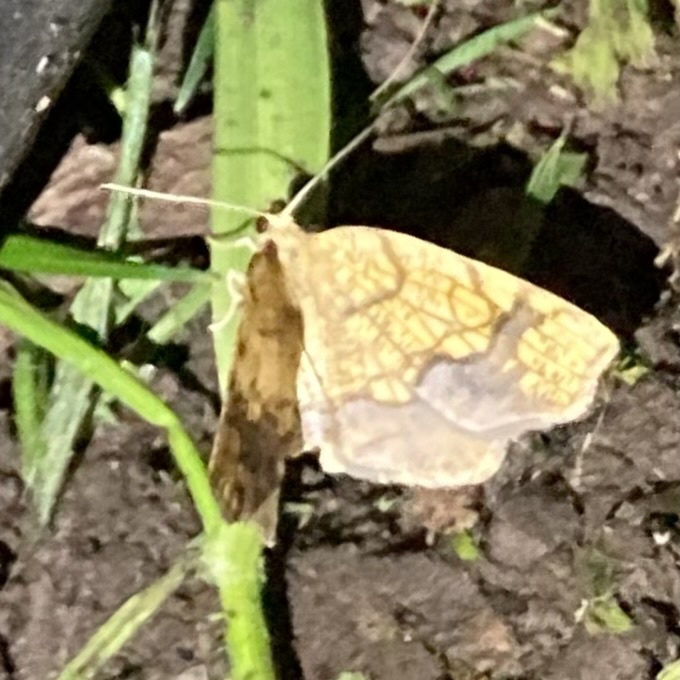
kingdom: Animalia
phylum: Arthropoda
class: Insecta
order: Lepidoptera
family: Geometridae
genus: Nematocampa
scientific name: Nematocampa resistaria
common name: Horned spanworm moth
